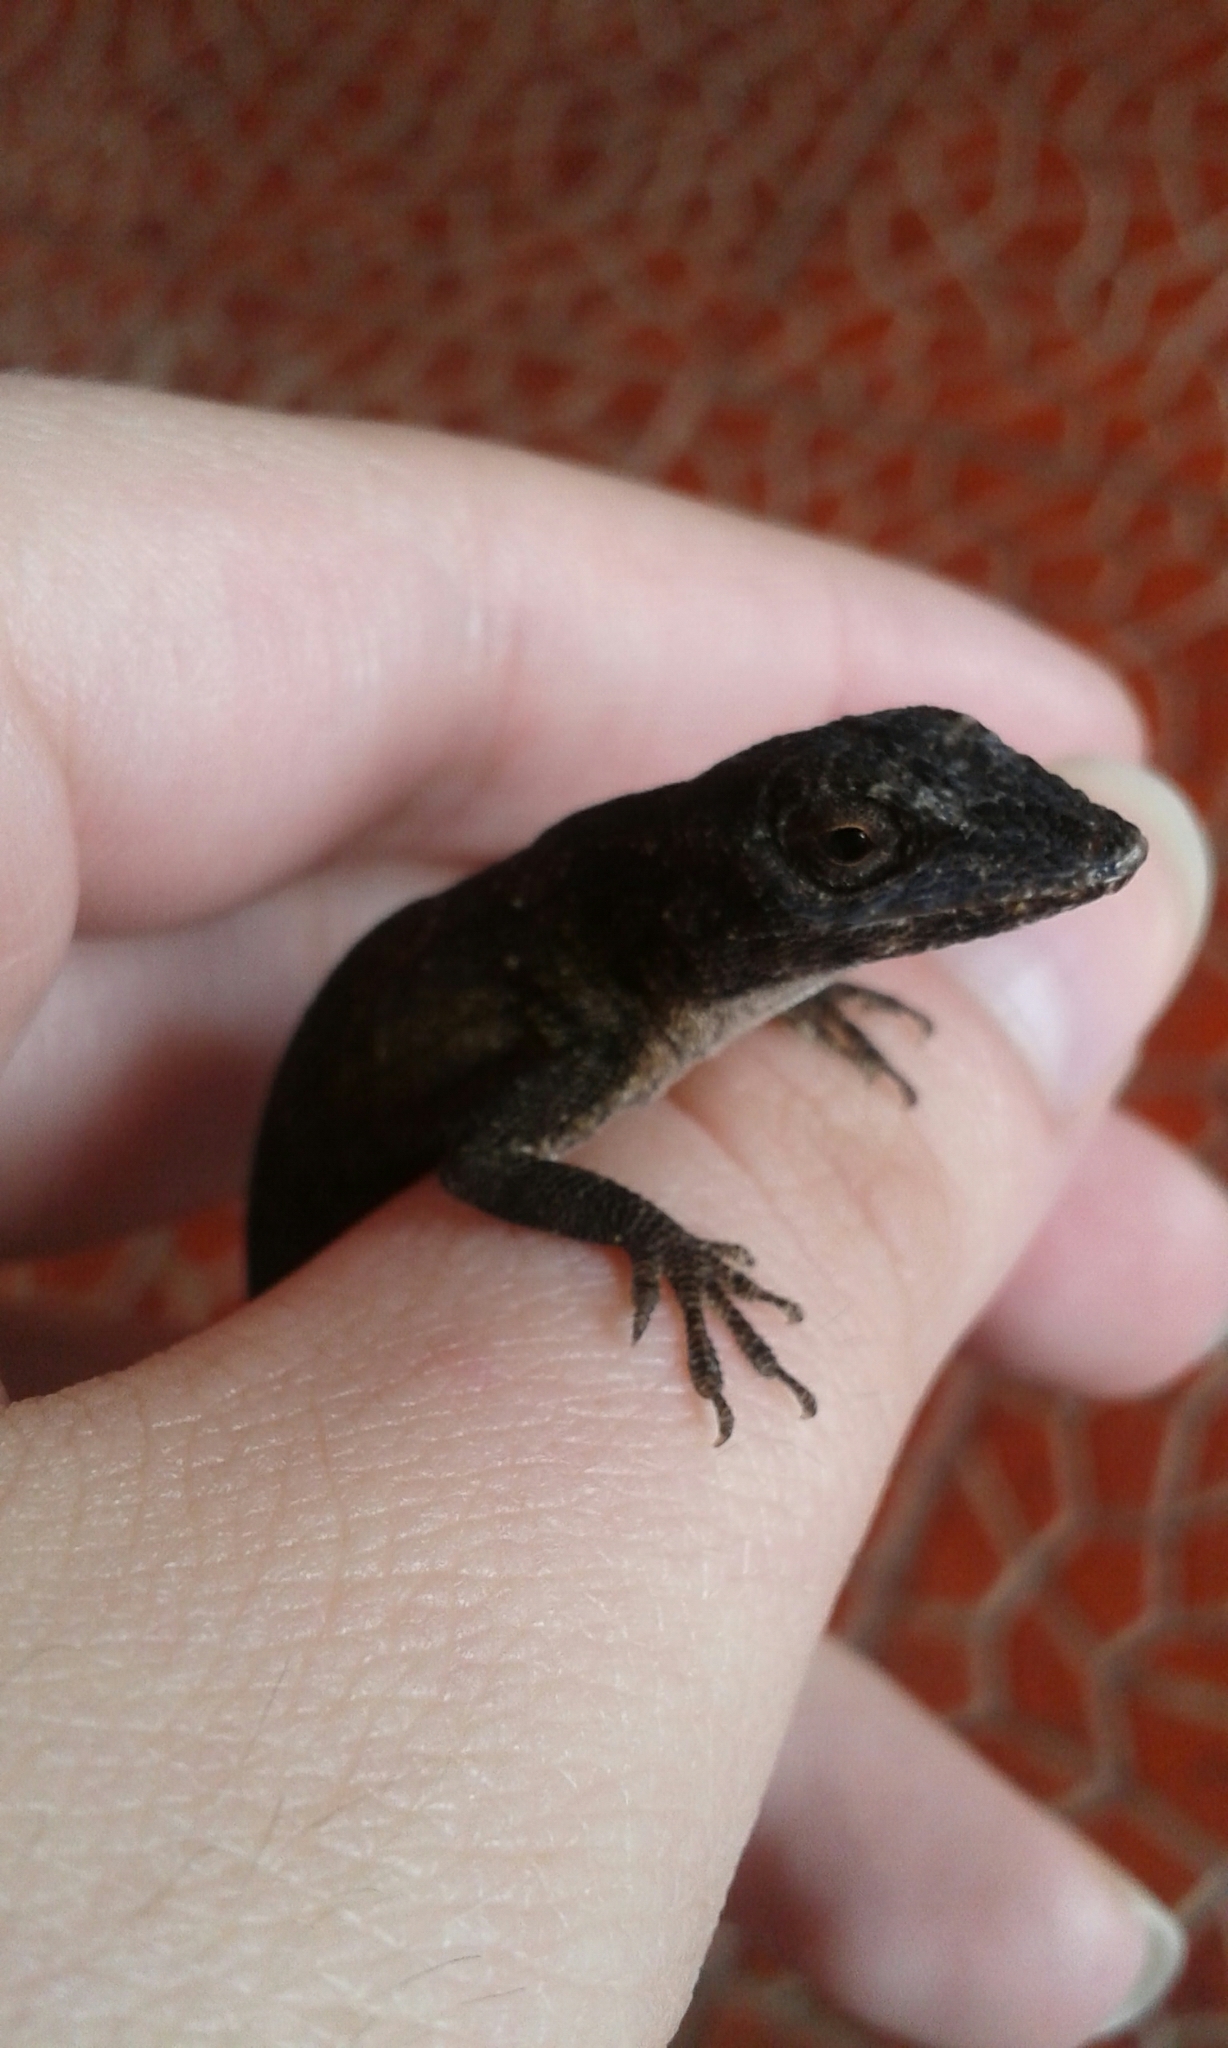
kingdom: Animalia
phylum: Chordata
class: Squamata
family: Dactyloidae
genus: Anolis
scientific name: Anolis biporcatus
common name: Giant green anole
